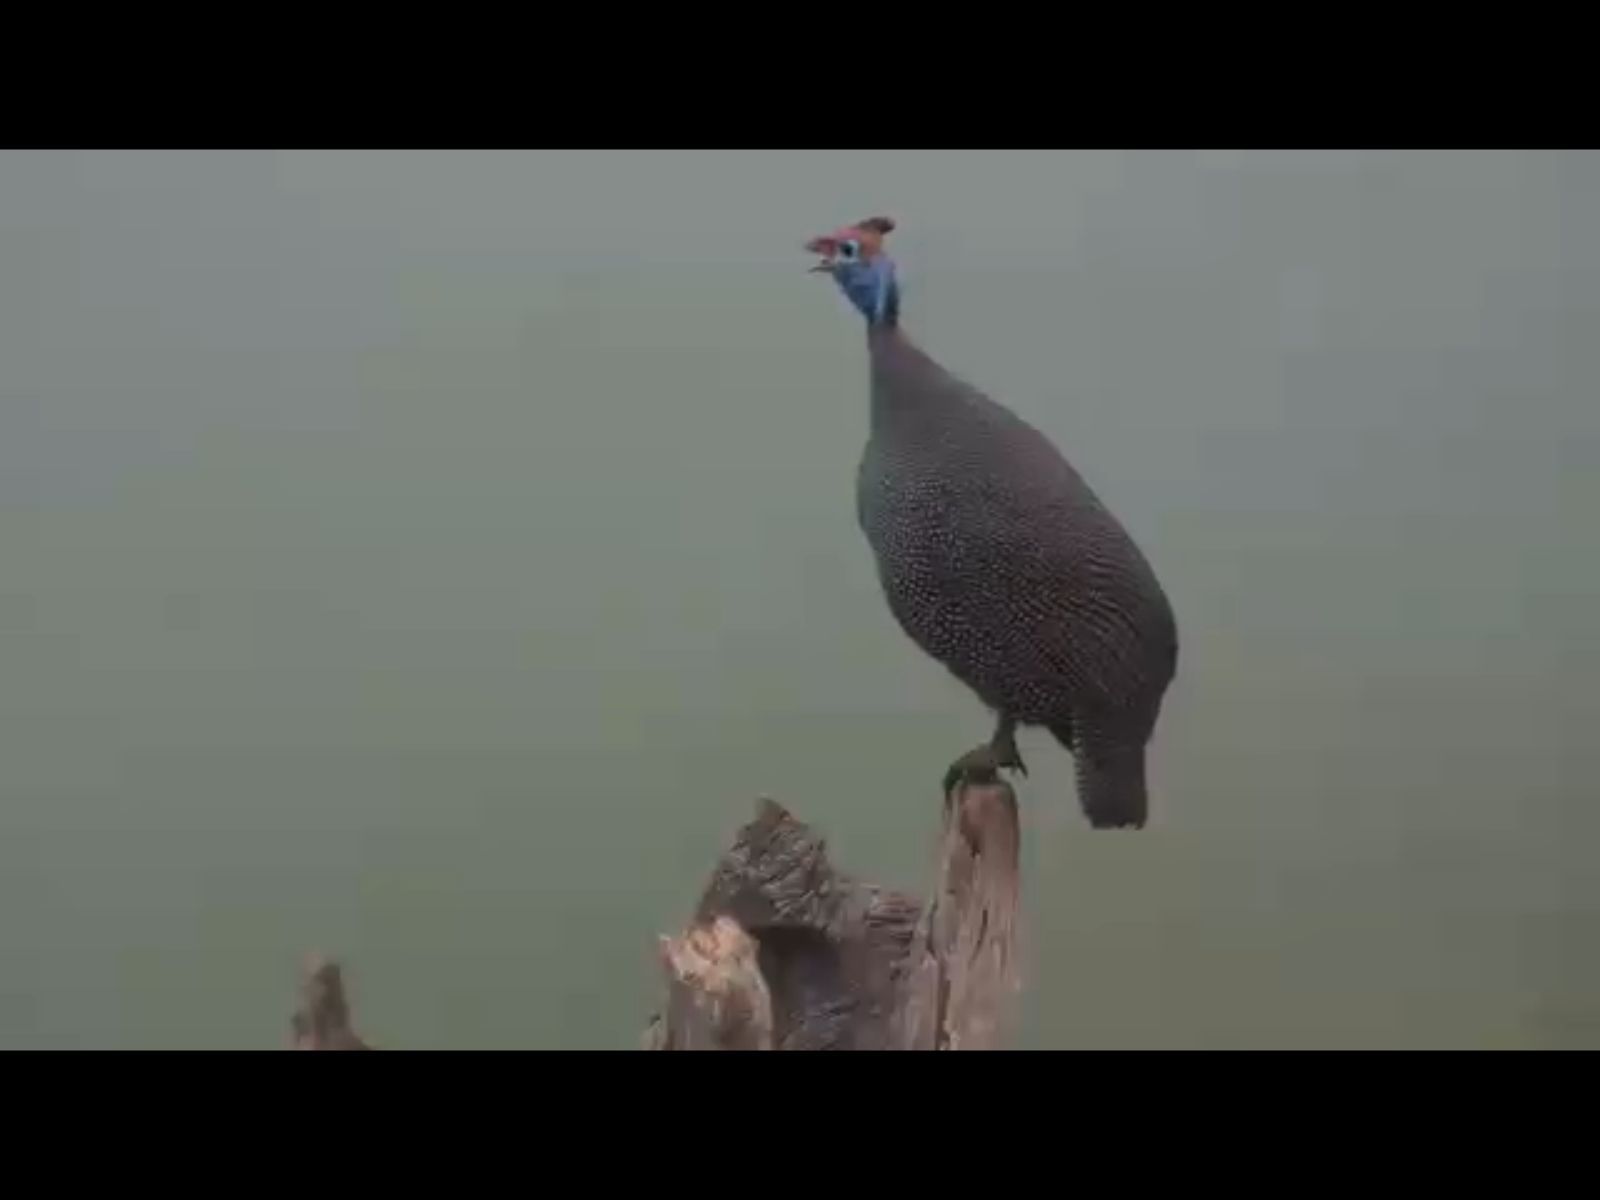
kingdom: Animalia
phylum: Chordata
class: Aves
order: Galliformes
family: Numididae
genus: Numida
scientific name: Numida meleagris
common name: Helmeted guineafowl
